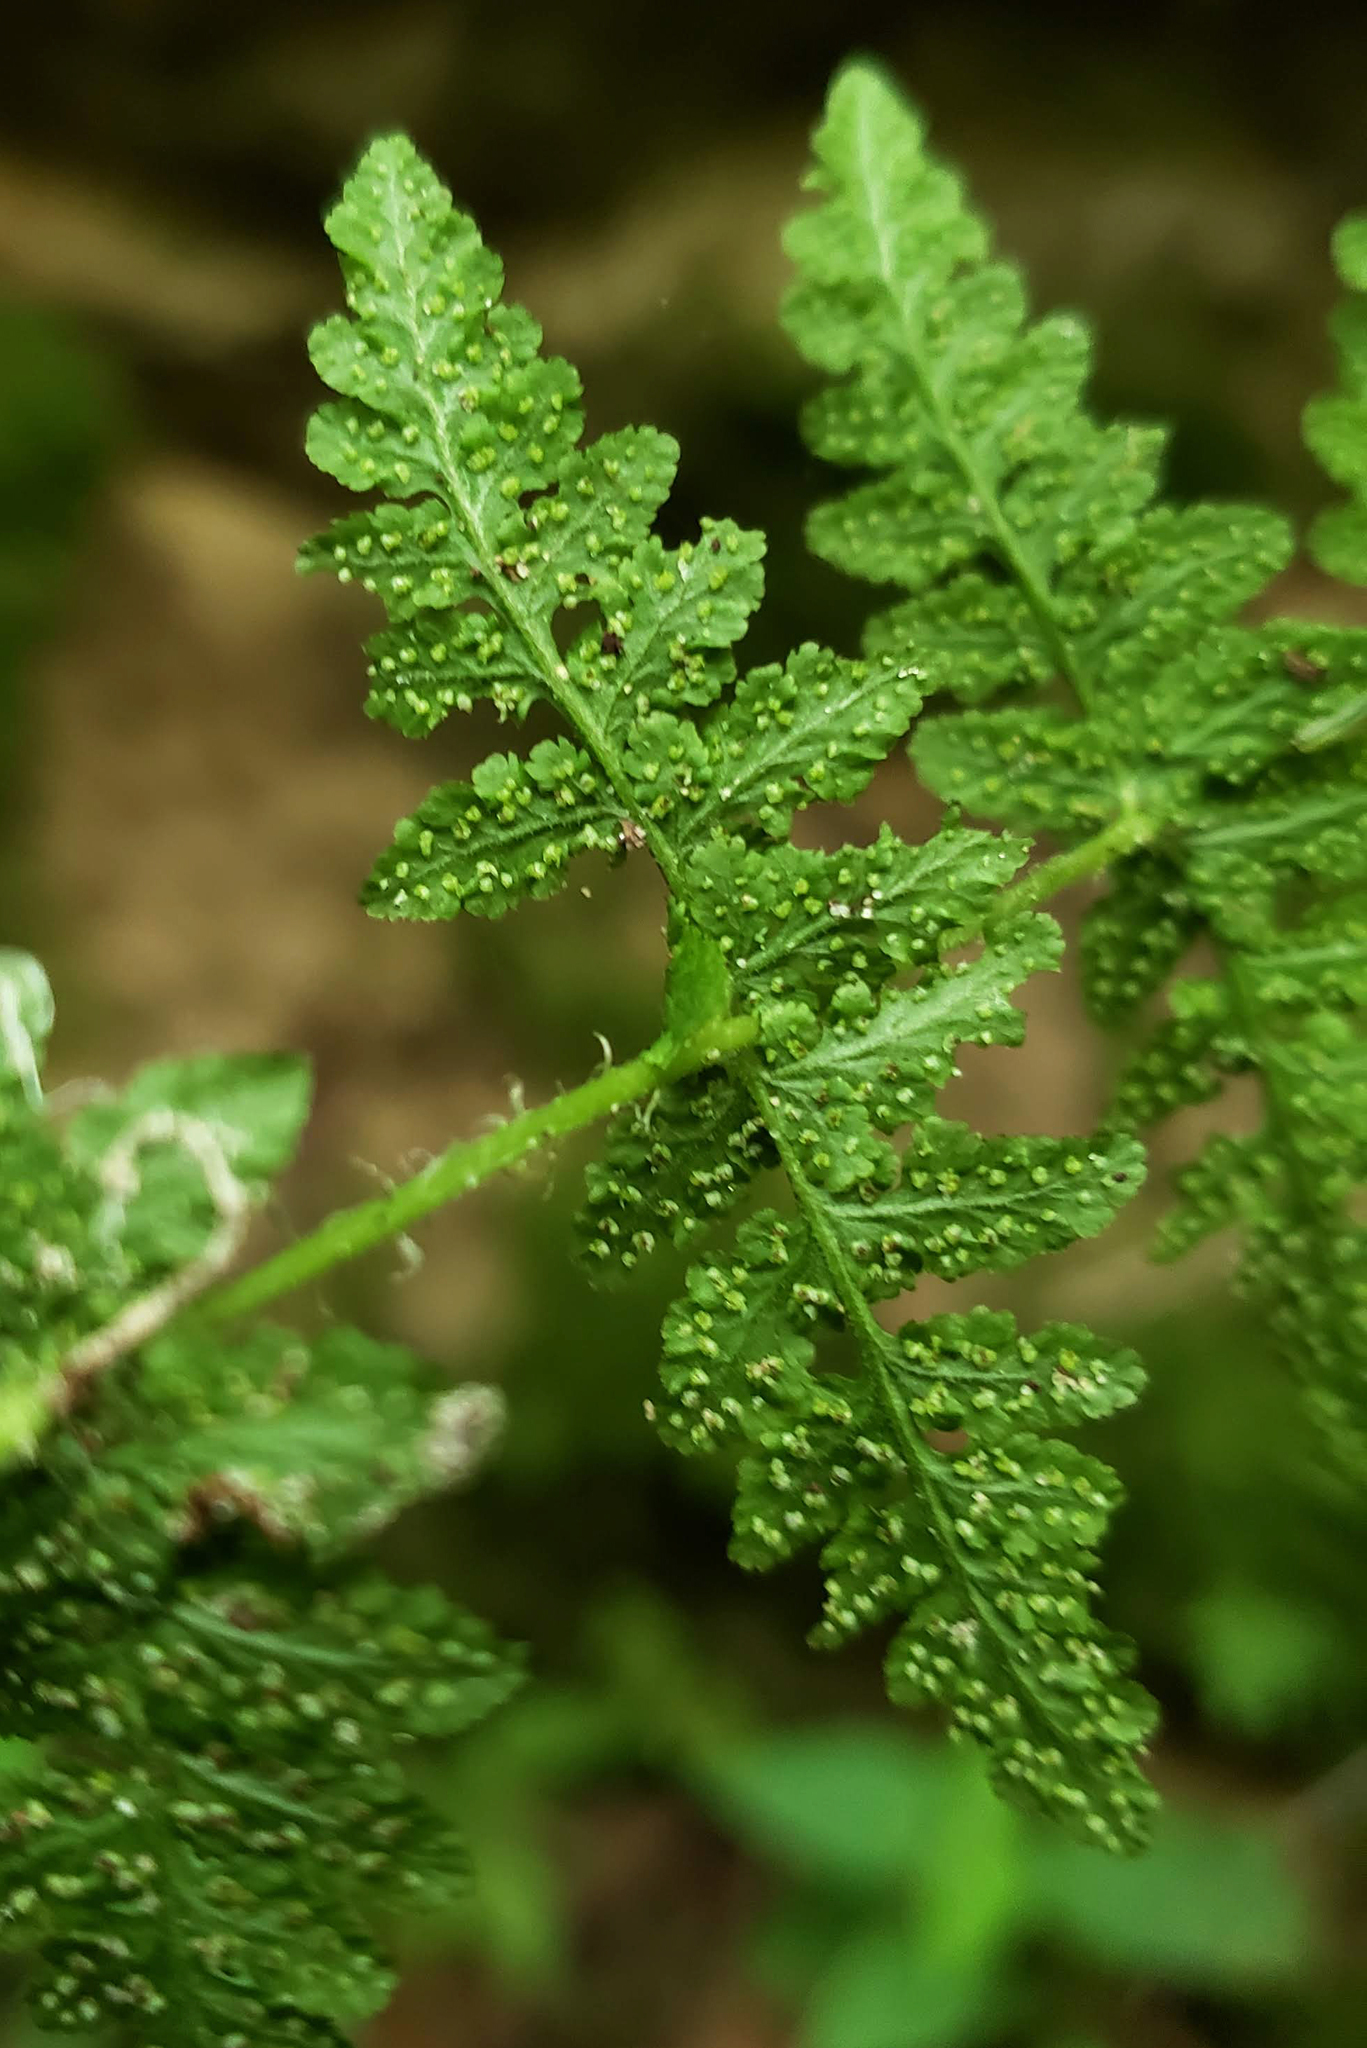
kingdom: Plantae
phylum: Tracheophyta
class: Polypodiopsida
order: Polypodiales
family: Woodsiaceae
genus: Physematium
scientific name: Physematium obtusum
